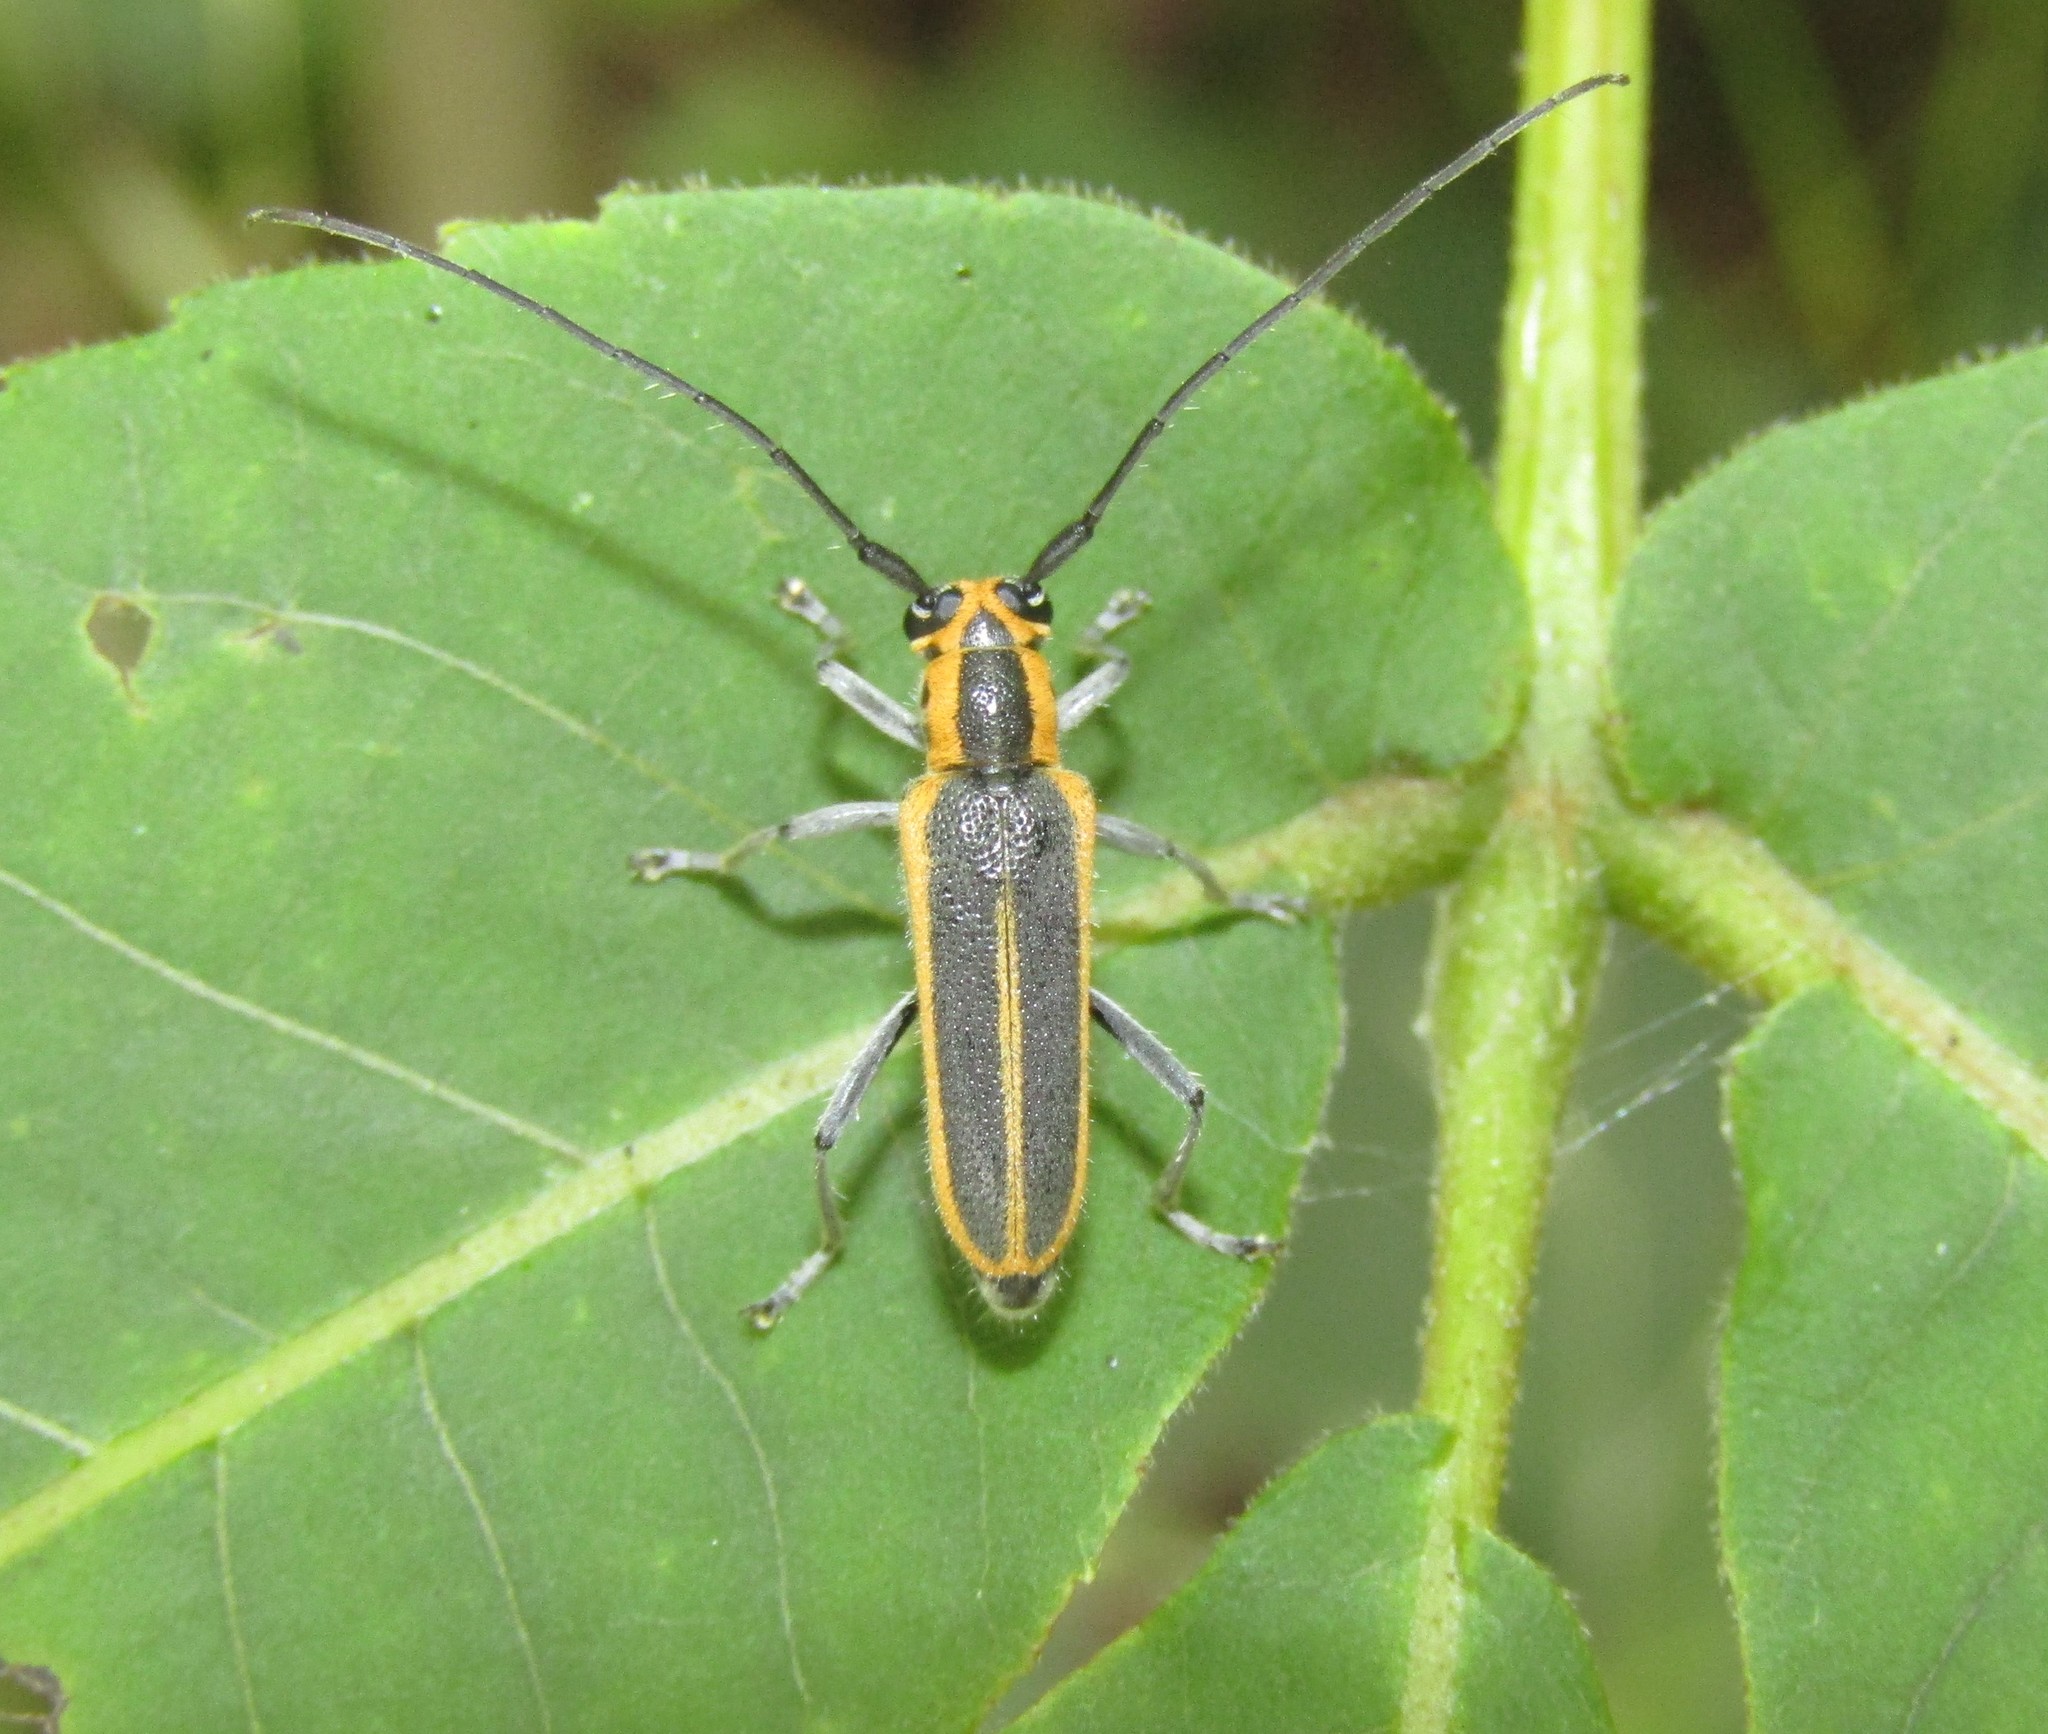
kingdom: Animalia
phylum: Arthropoda
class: Insecta
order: Coleoptera
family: Cerambycidae
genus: Saperda
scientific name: Saperda lateralis
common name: Red-edged saperda
